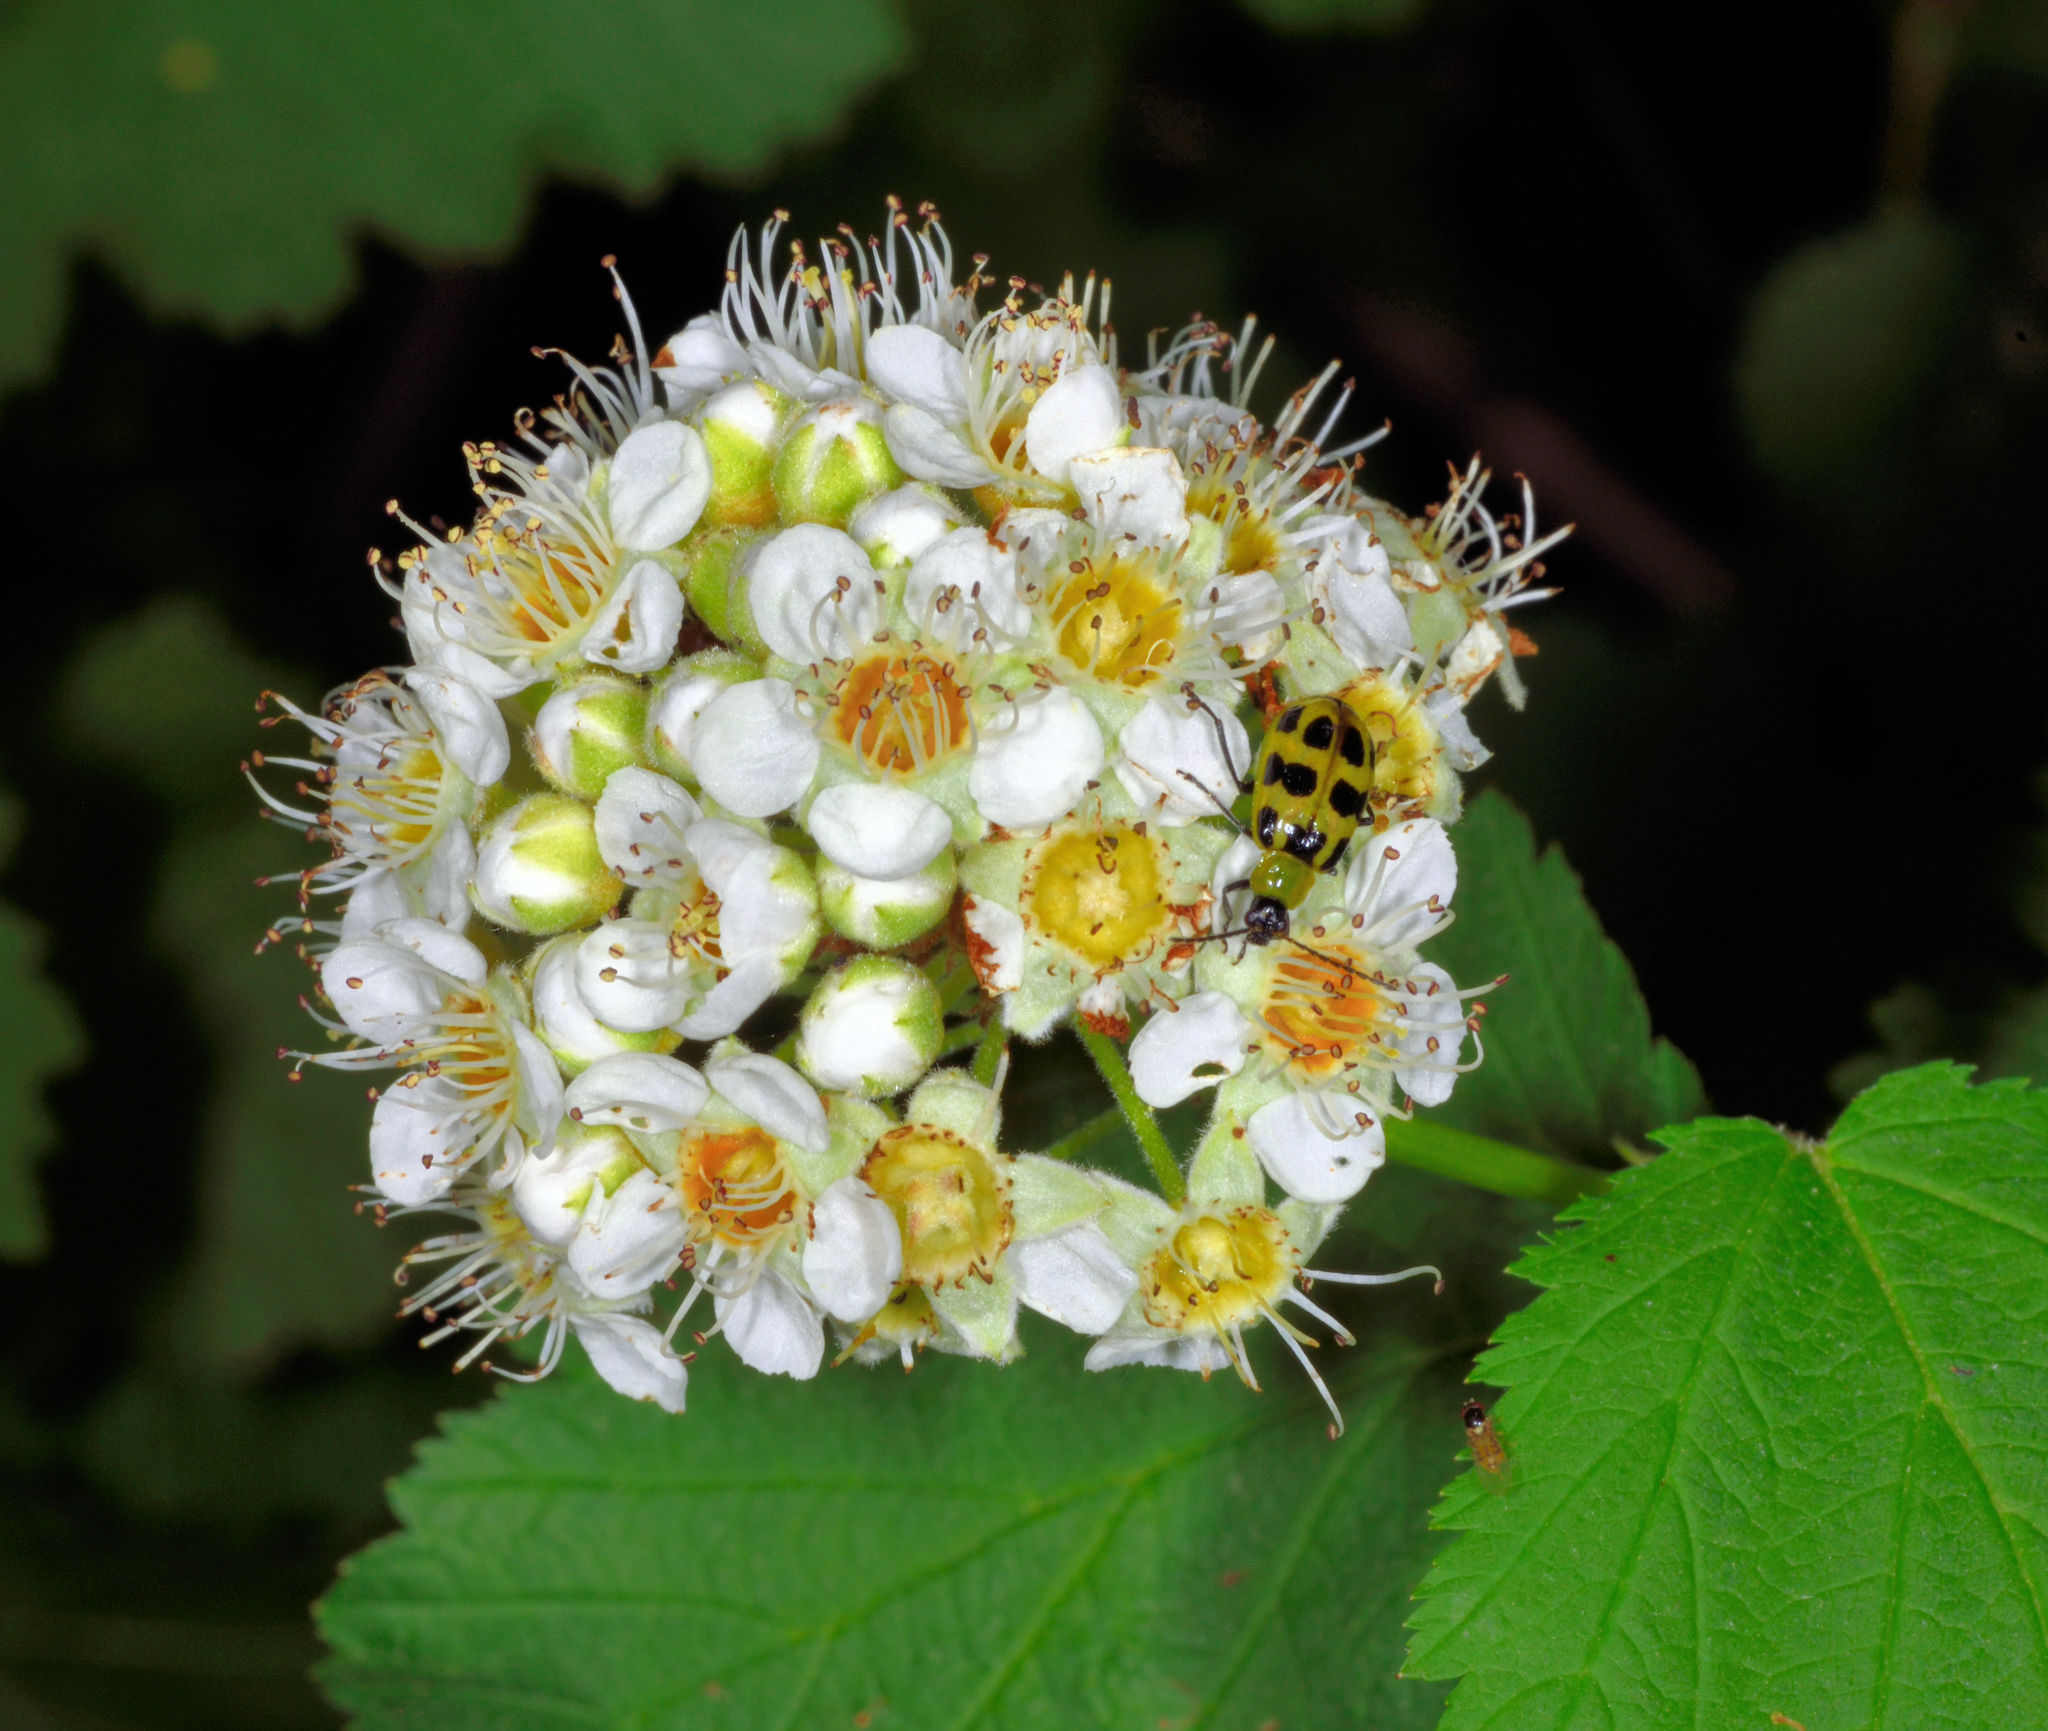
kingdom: Plantae
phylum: Tracheophyta
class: Magnoliopsida
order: Rosales
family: Rosaceae
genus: Physocarpus
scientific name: Physocarpus capitatus
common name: Pacific ninebark
